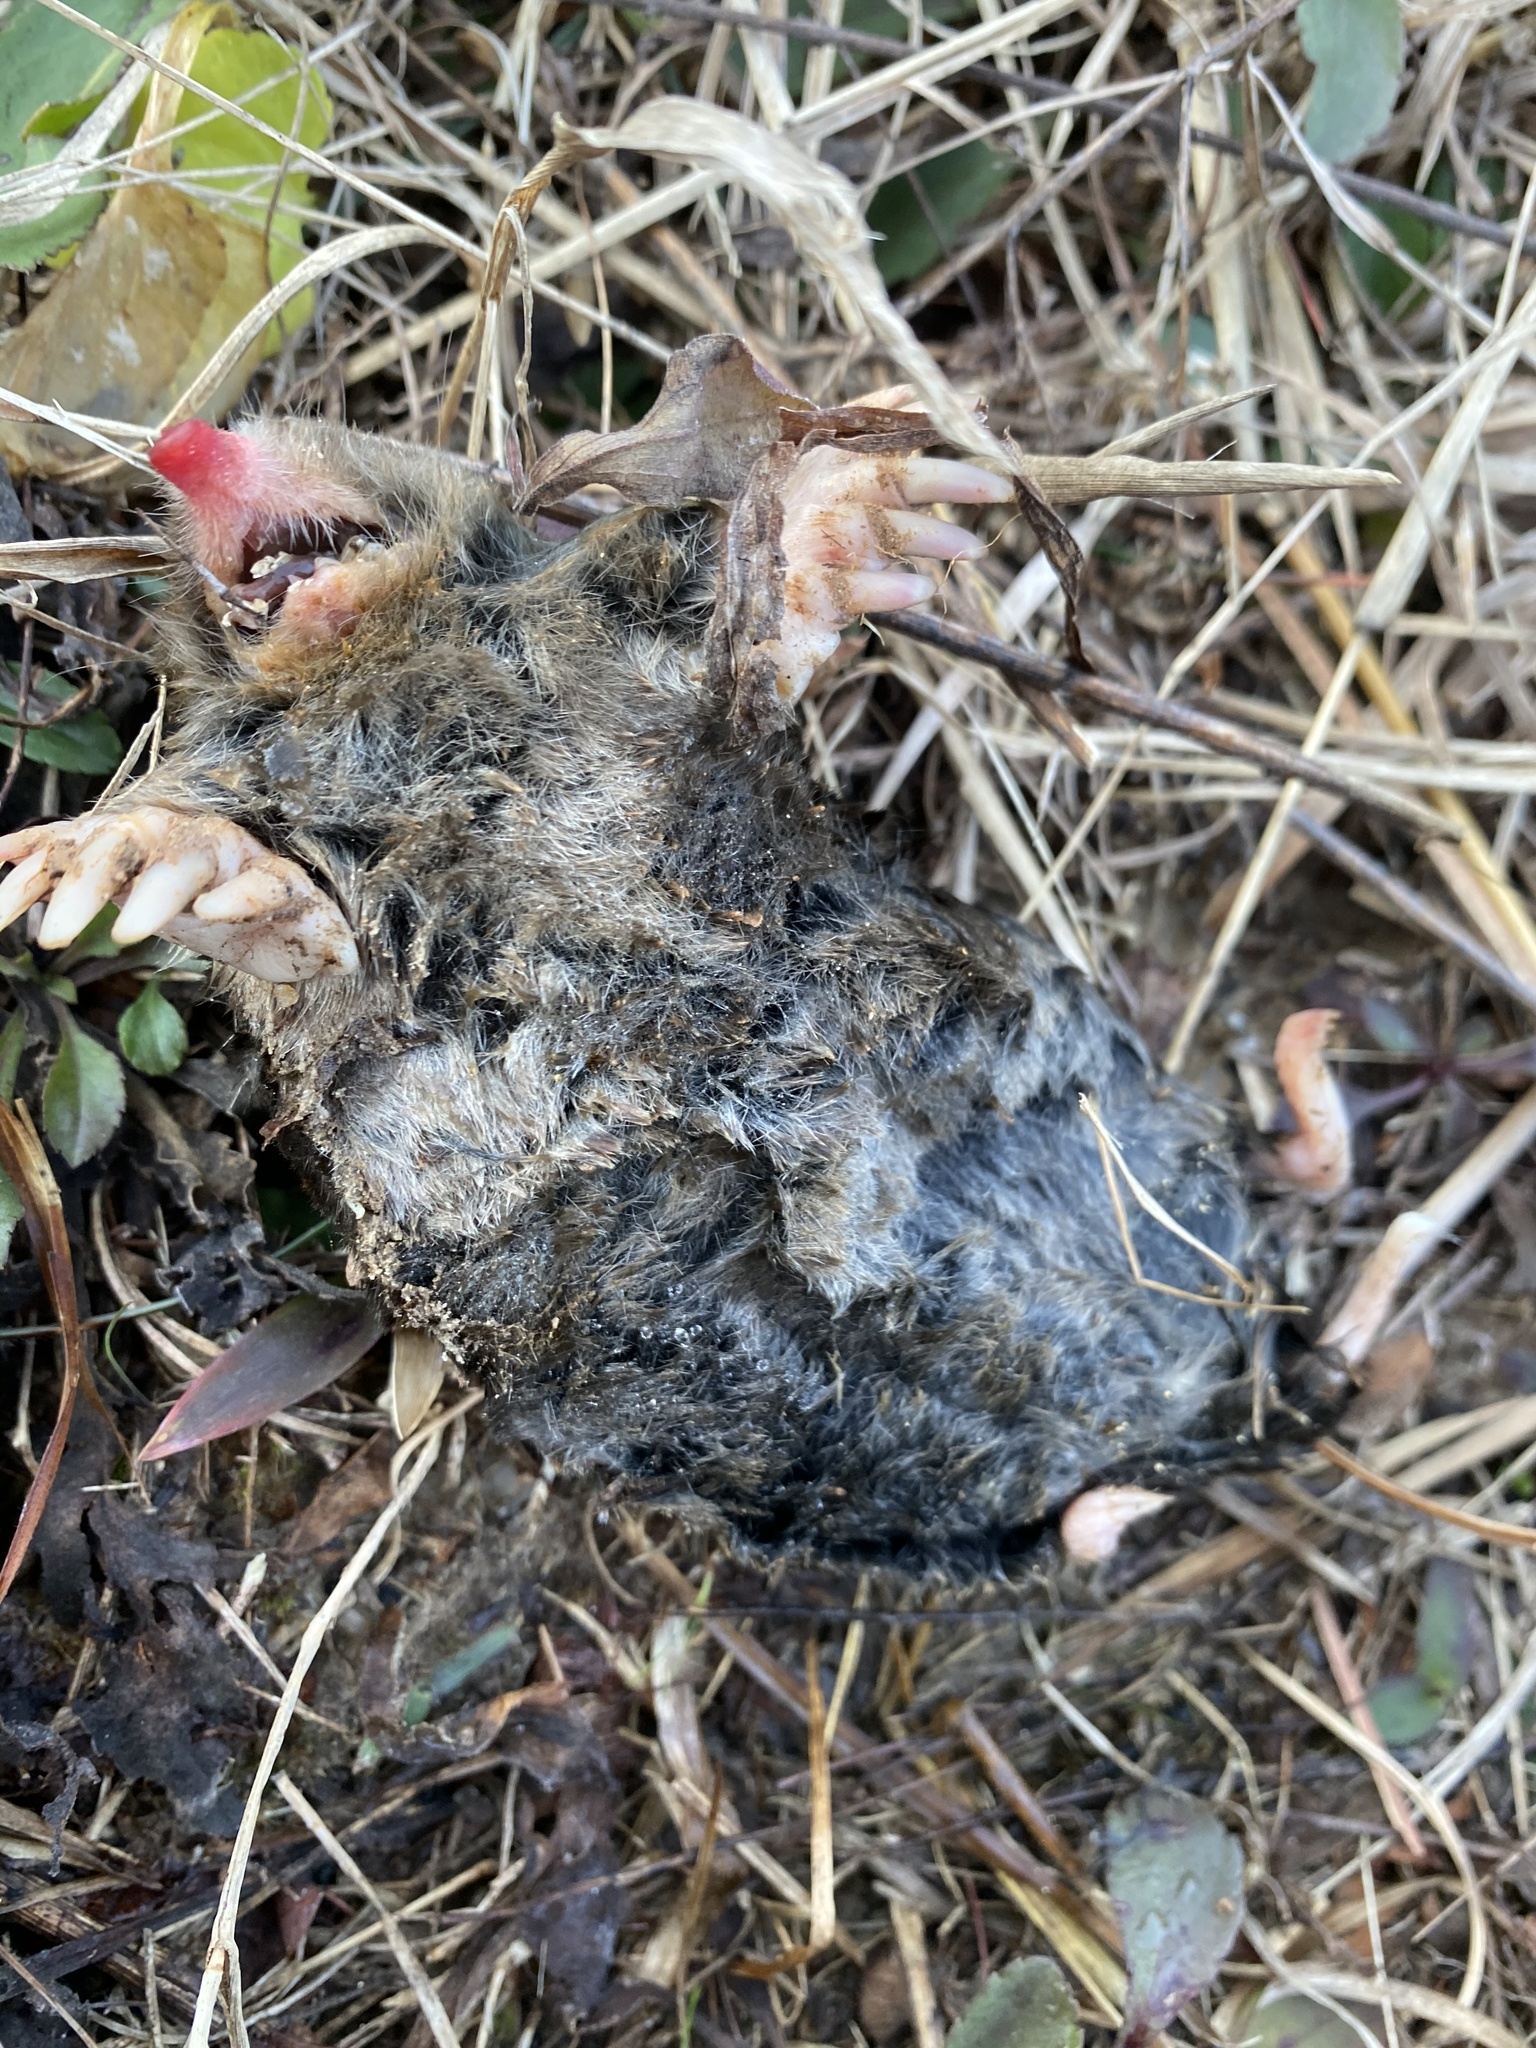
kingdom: Animalia
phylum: Chordata
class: Mammalia
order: Soricomorpha
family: Talpidae
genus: Scalopus
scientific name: Scalopus aquaticus
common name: Eastern mole
